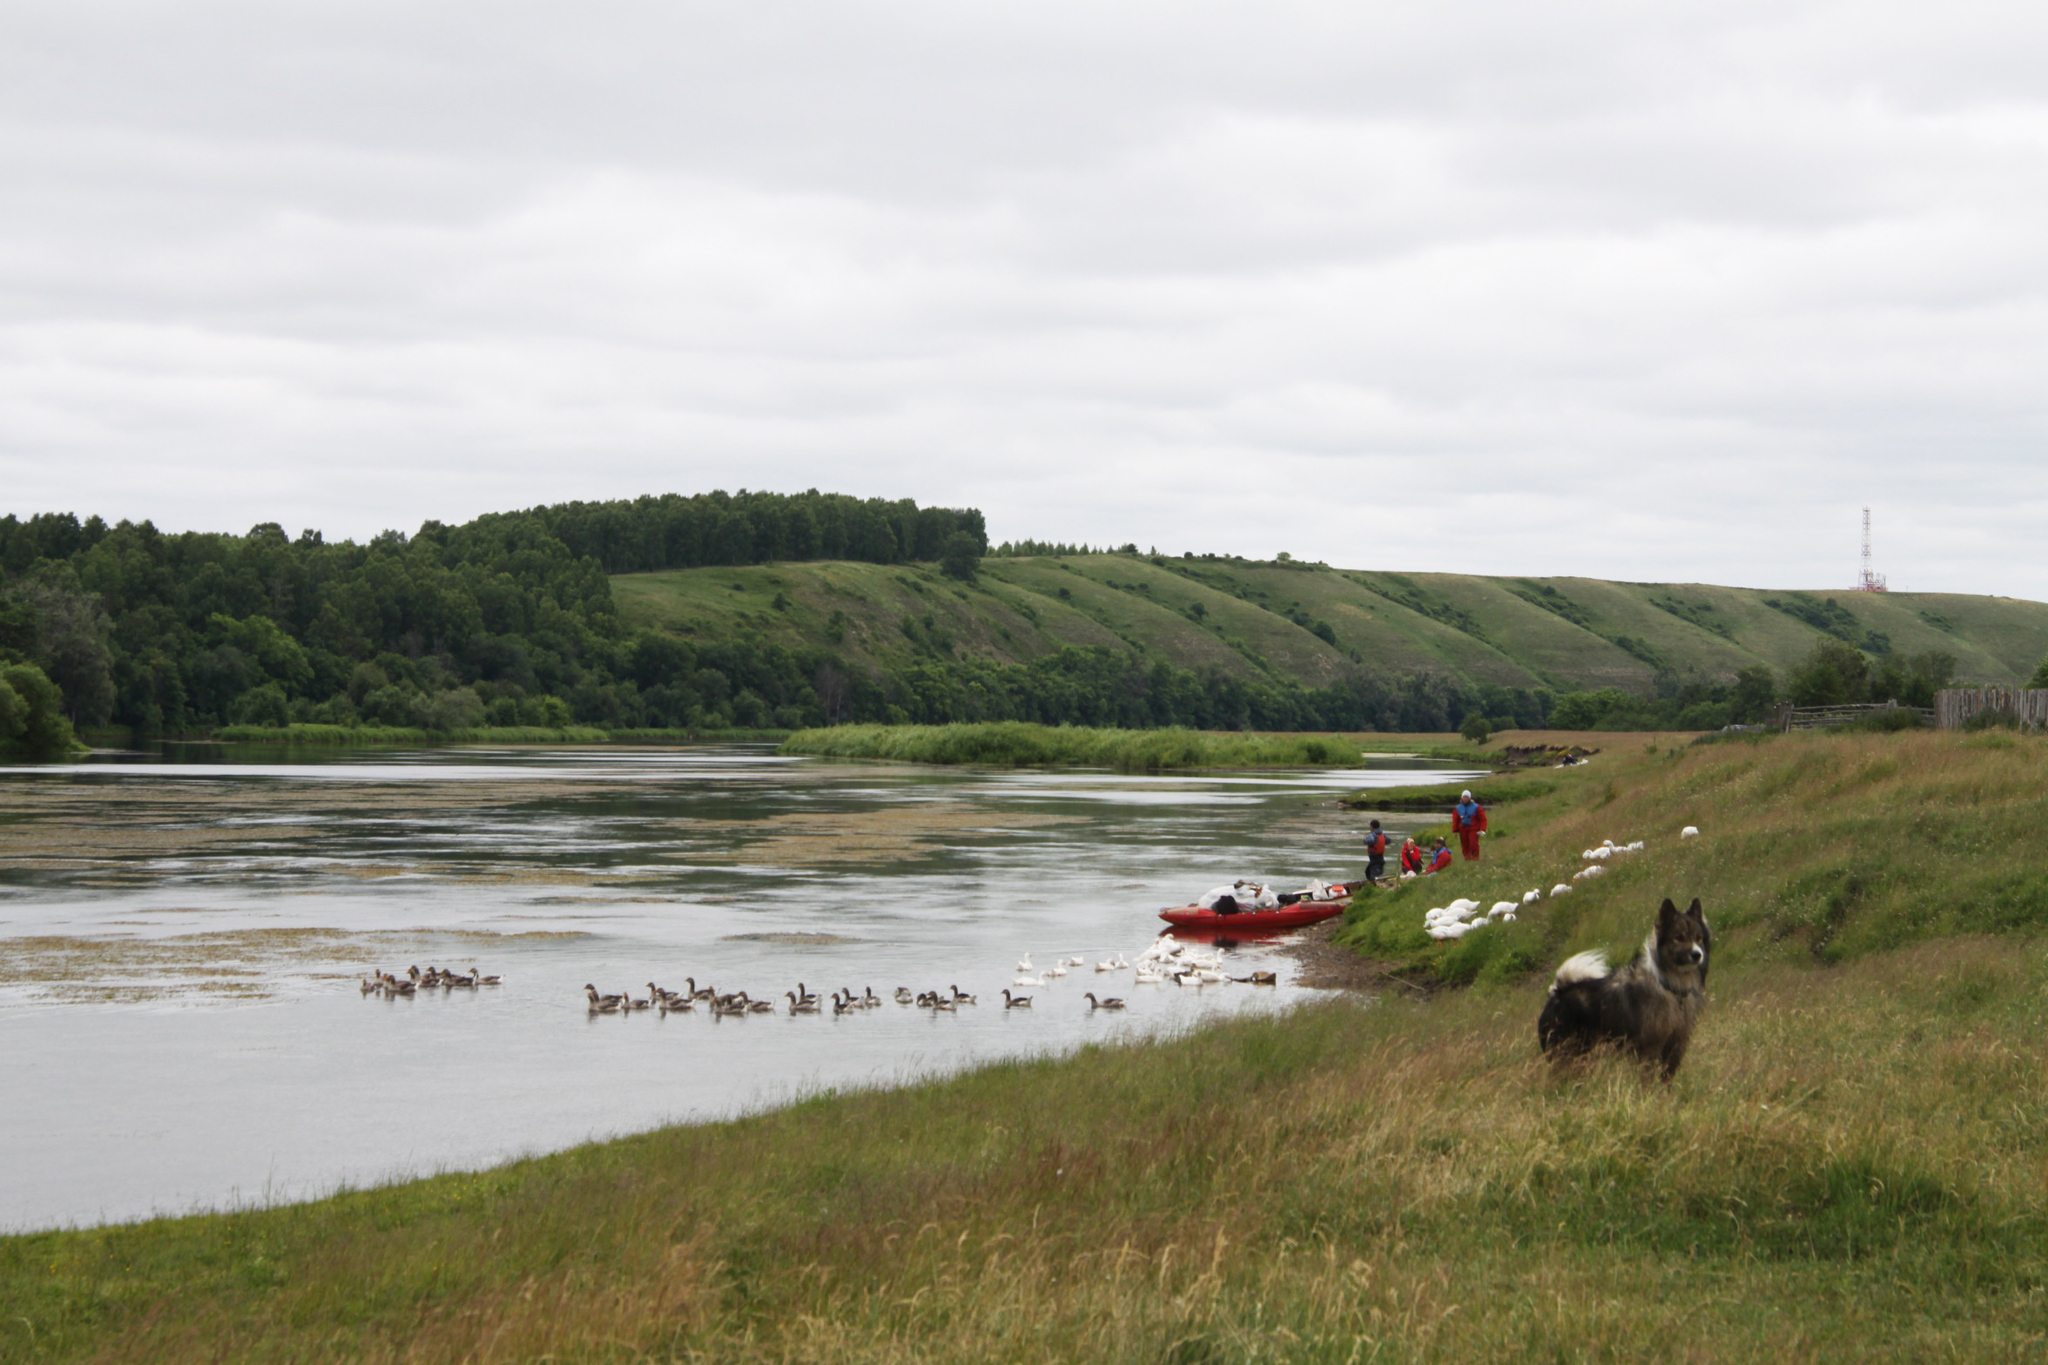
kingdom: Animalia
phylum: Chordata
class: Aves
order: Anseriformes
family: Anatidae
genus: Anser
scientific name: Anser anser
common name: Greylag goose
